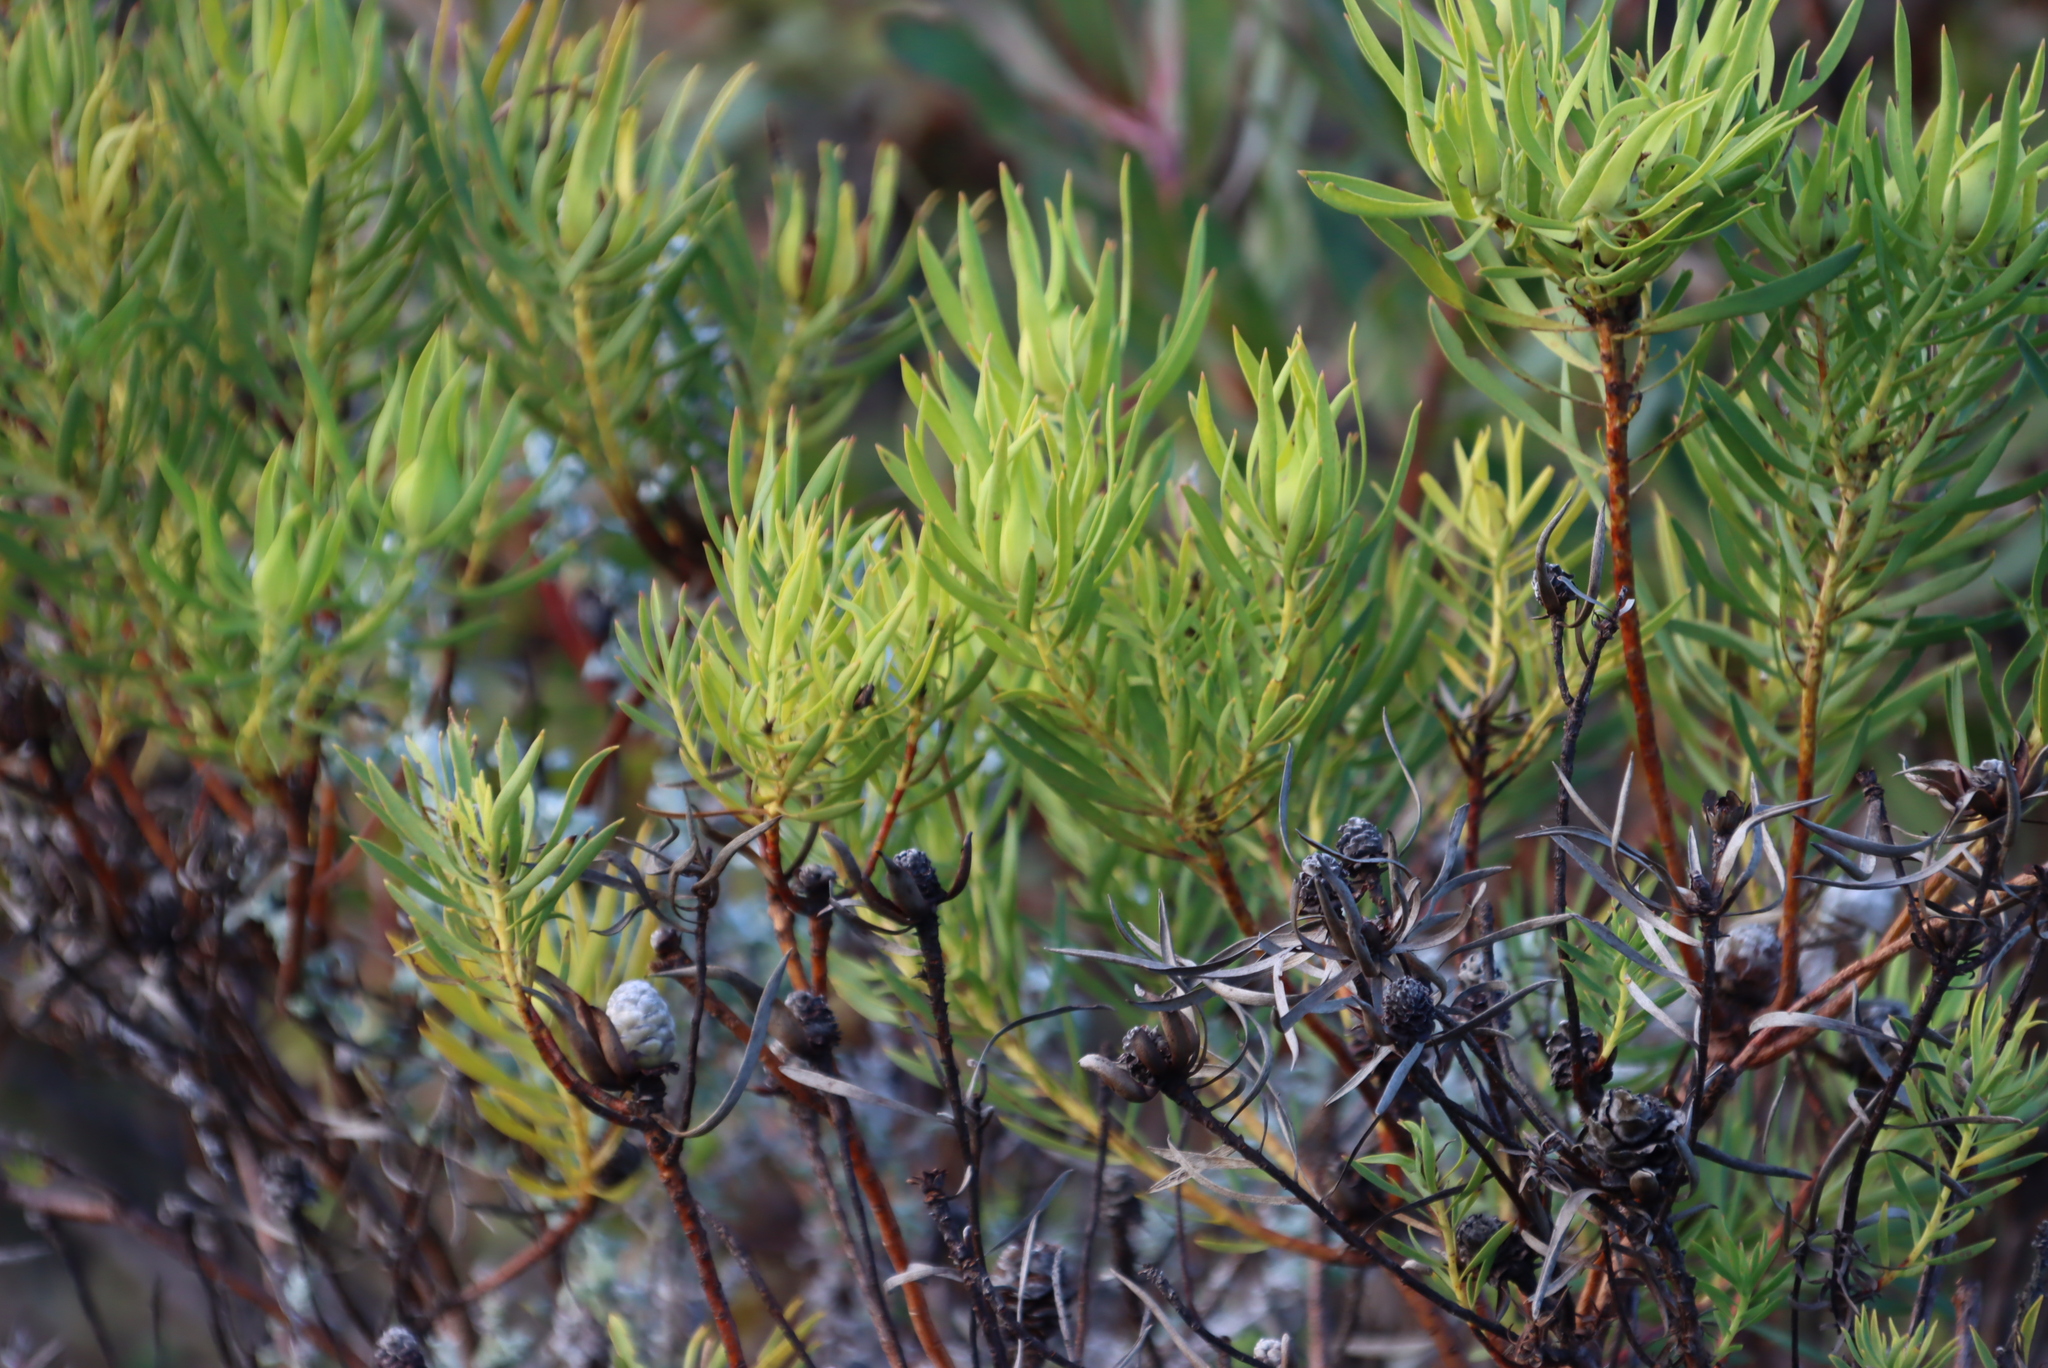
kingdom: Plantae
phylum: Tracheophyta
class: Magnoliopsida
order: Proteales
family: Proteaceae
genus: Leucadendron
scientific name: Leucadendron salignum
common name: Common sunshine conebush
